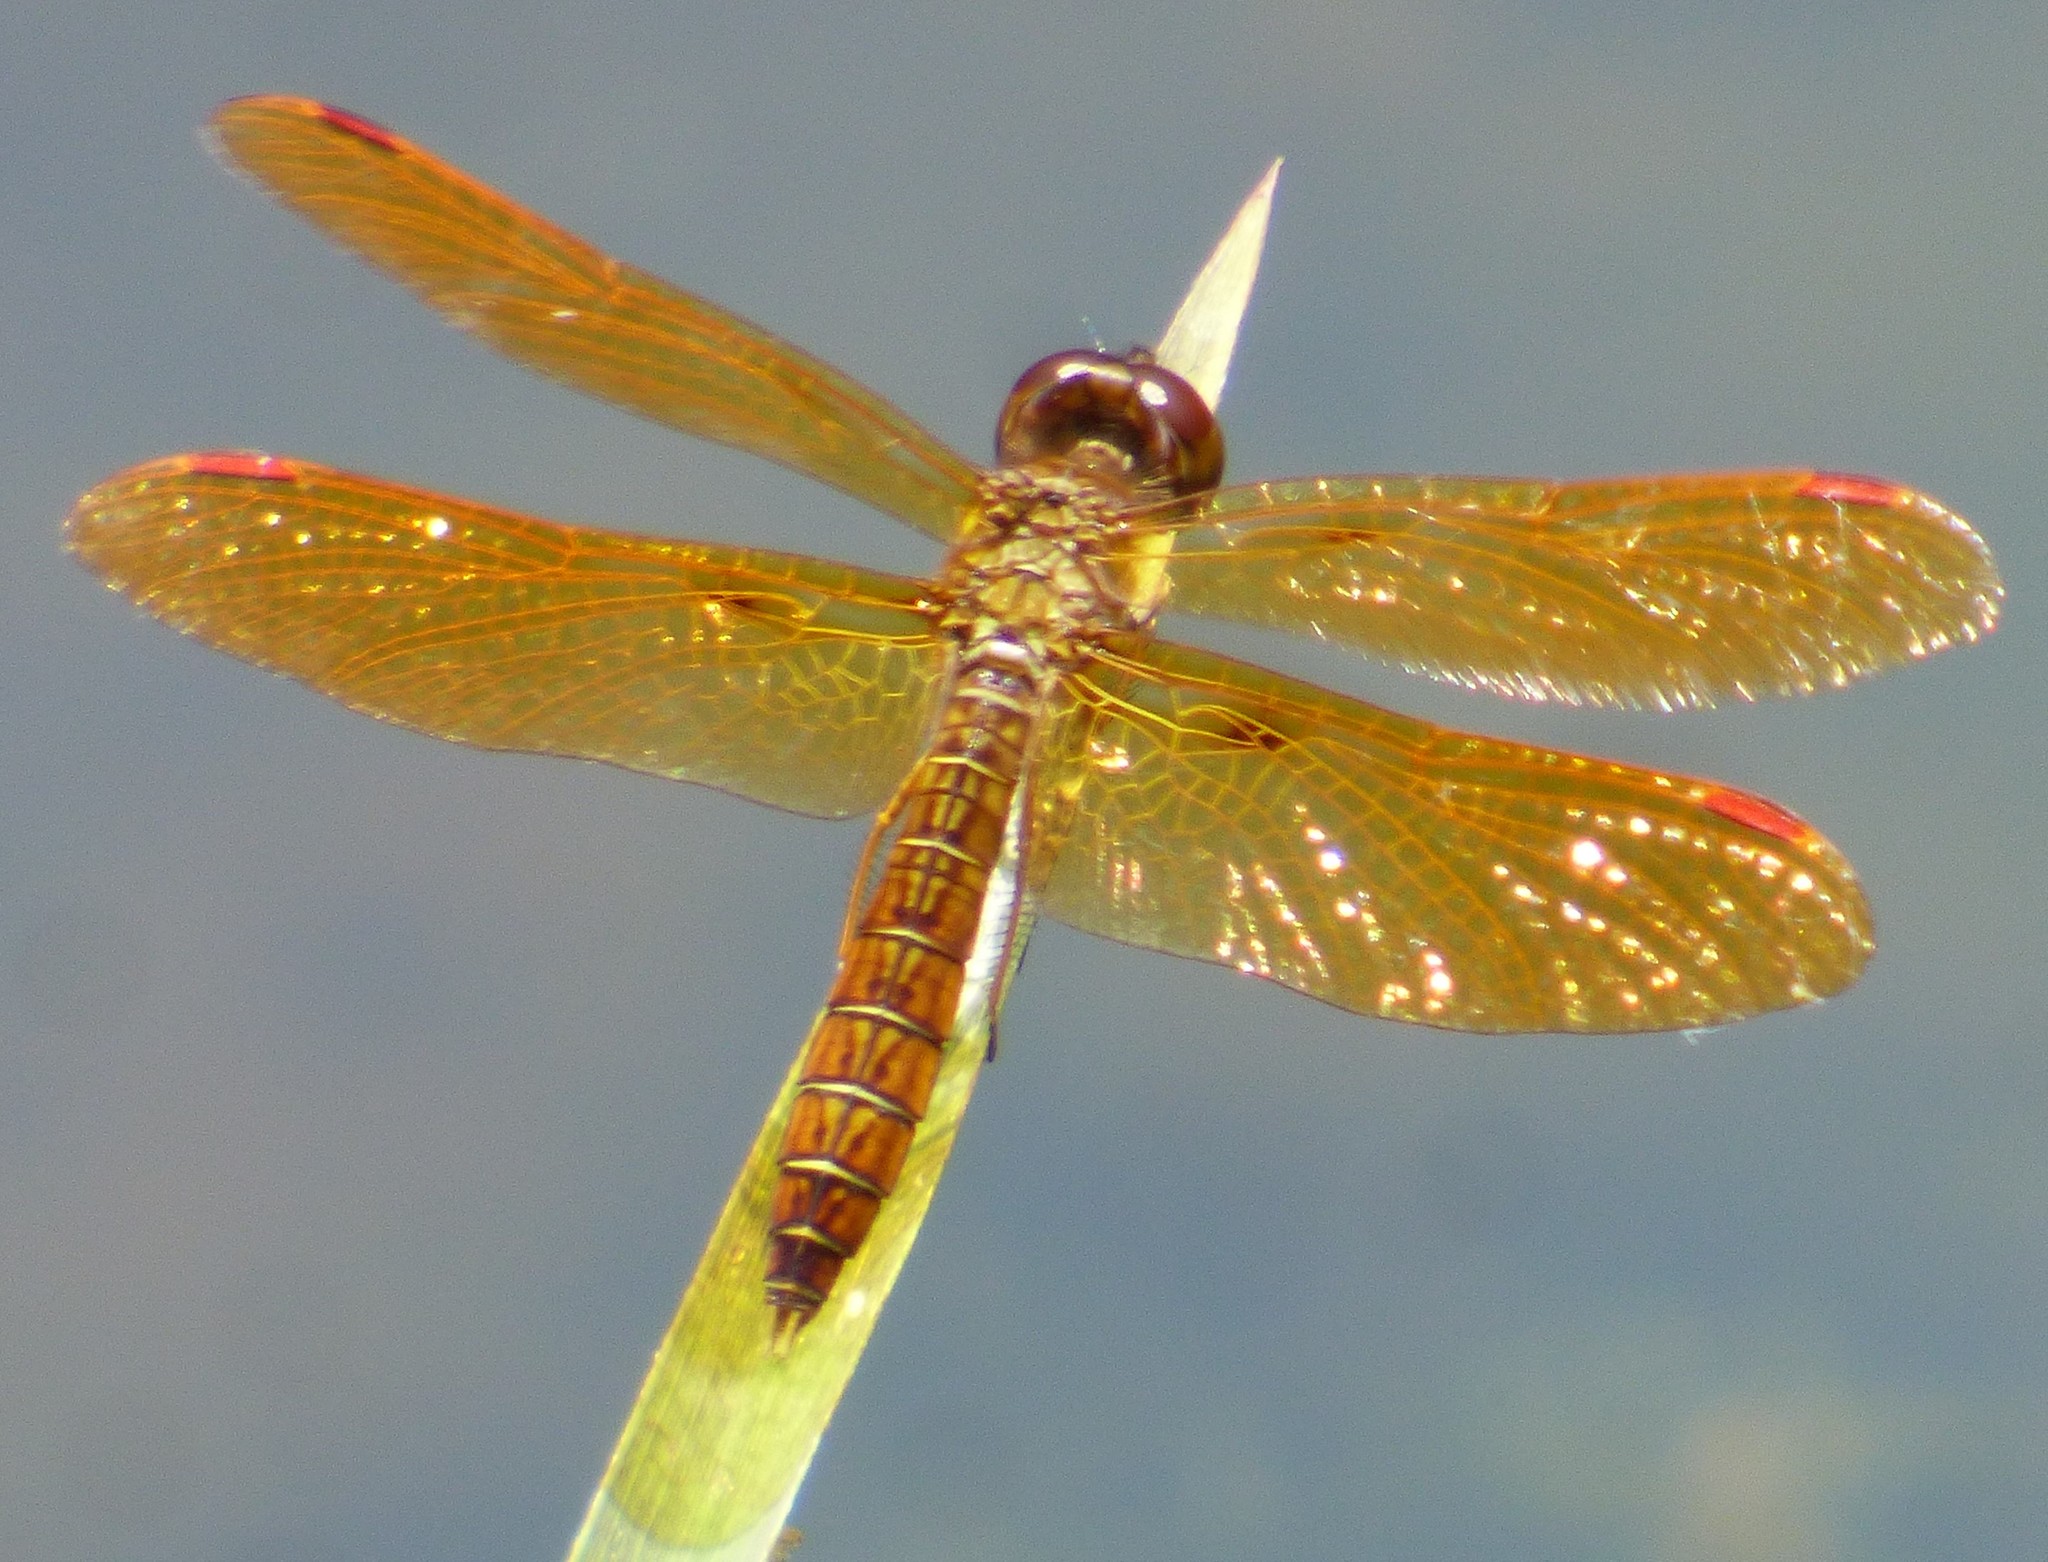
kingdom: Animalia
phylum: Arthropoda
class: Insecta
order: Odonata
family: Libellulidae
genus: Perithemis
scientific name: Perithemis tenera
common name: Eastern amberwing
